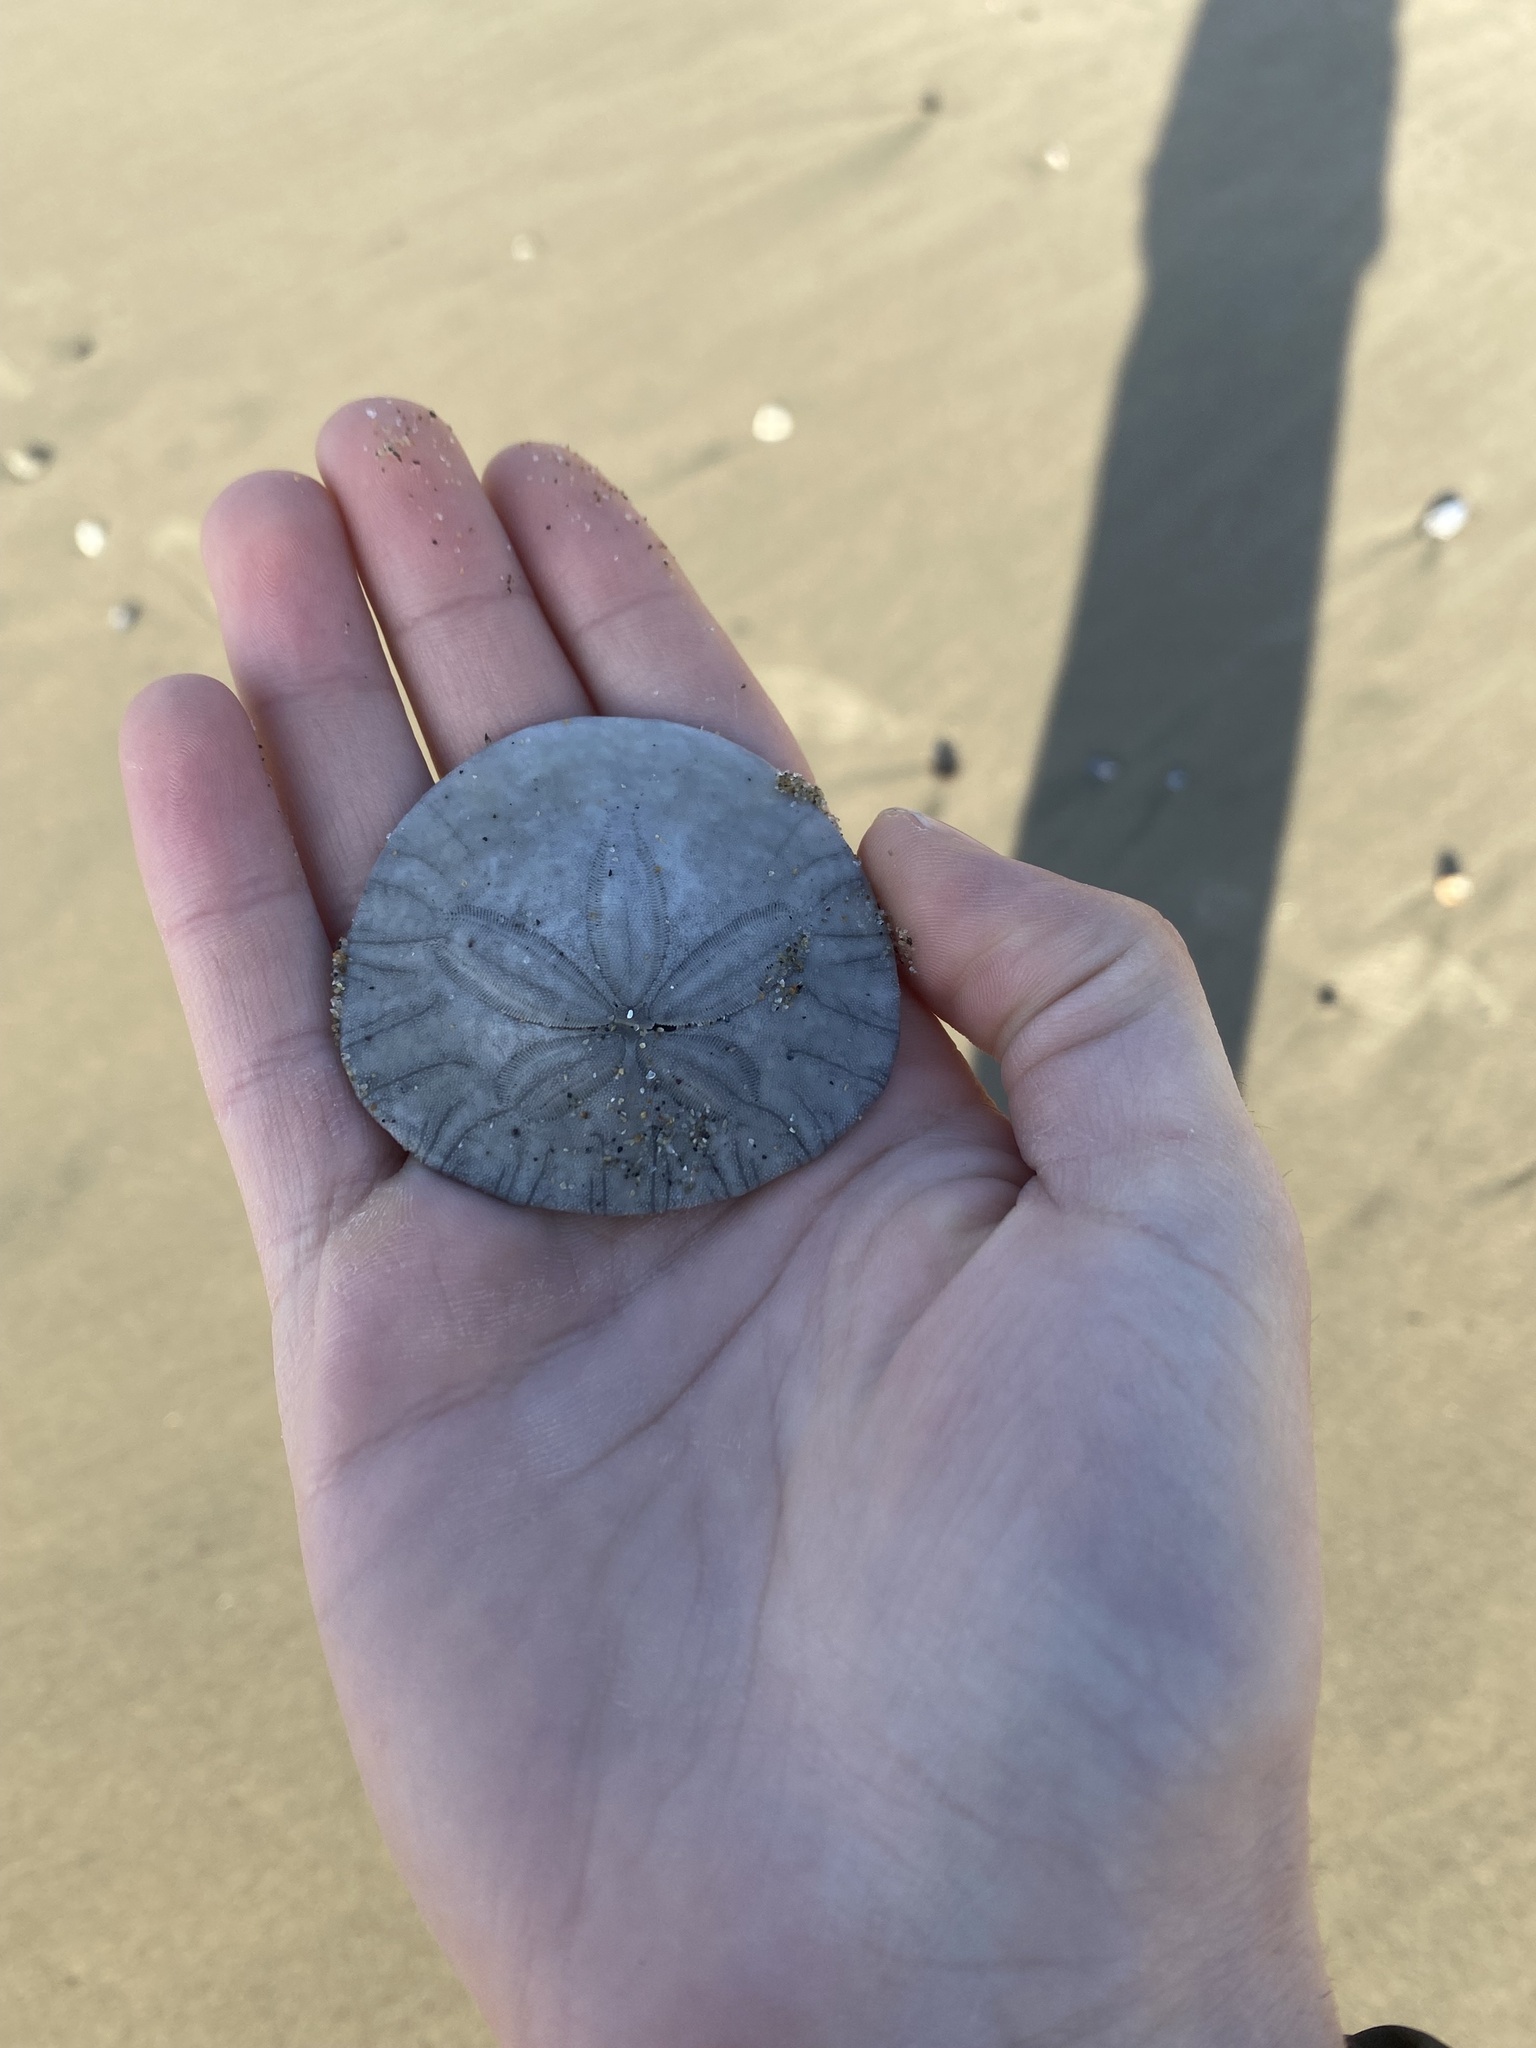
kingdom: Animalia
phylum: Echinodermata
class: Echinoidea
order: Echinolampadacea
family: Dendrasteridae
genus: Dendraster
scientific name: Dendraster excentricus
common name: Eccentric sand dollar sea urchin
